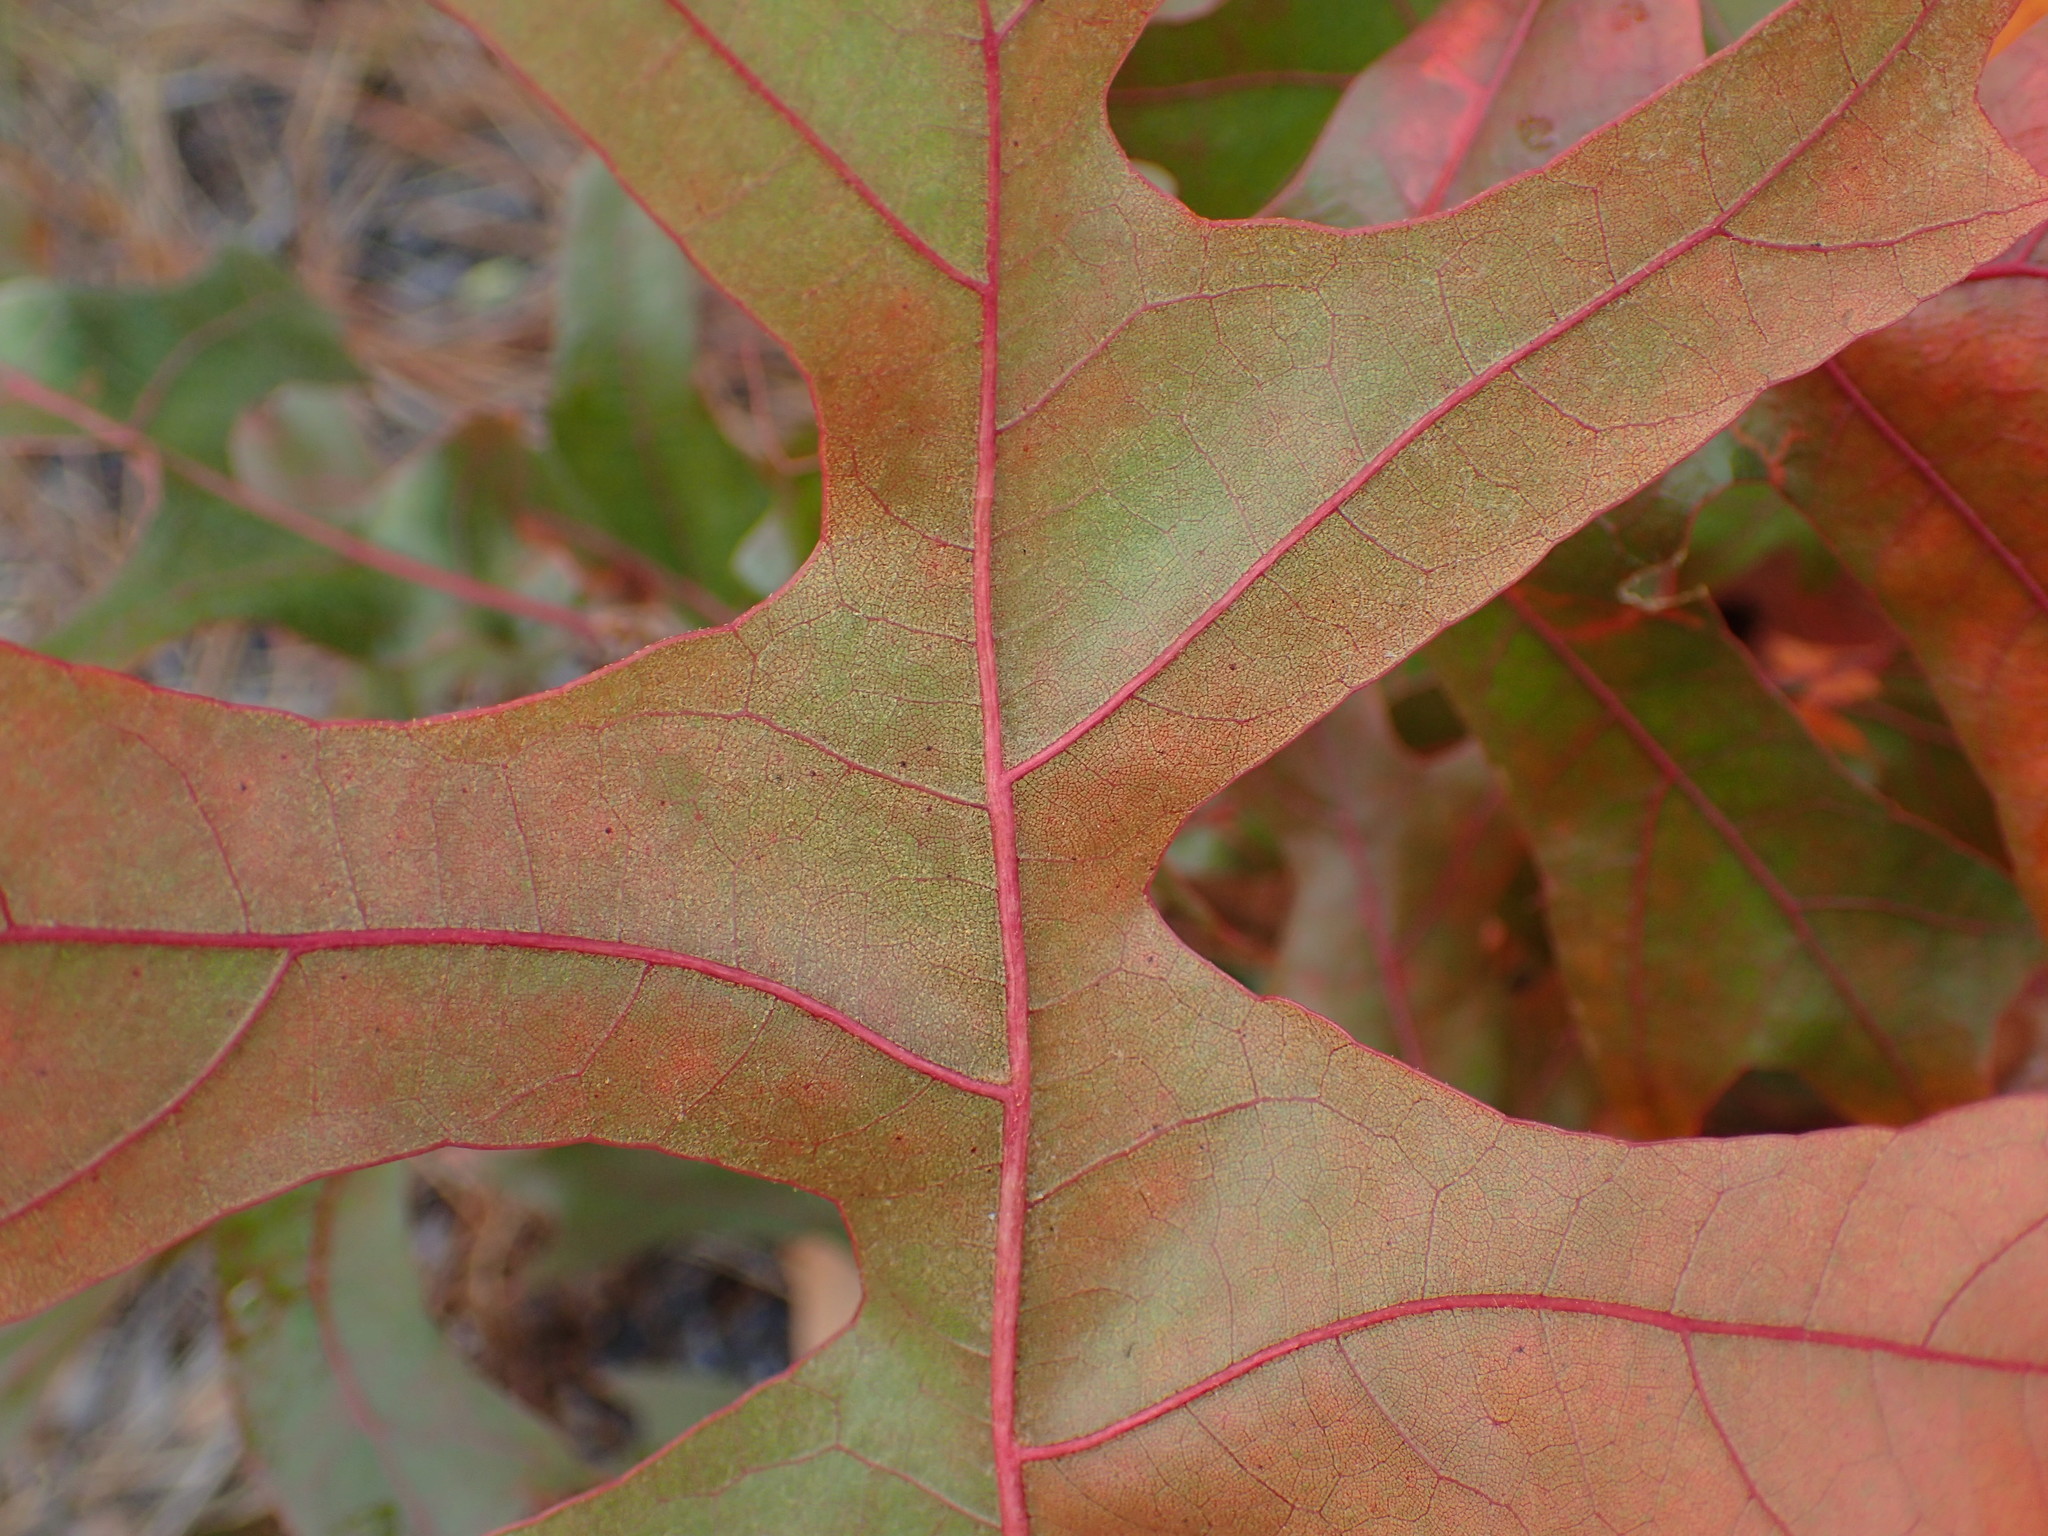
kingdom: Plantae
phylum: Tracheophyta
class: Magnoliopsida
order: Fagales
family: Fagaceae
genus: Quercus
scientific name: Quercus laevis
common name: Turkey oak
